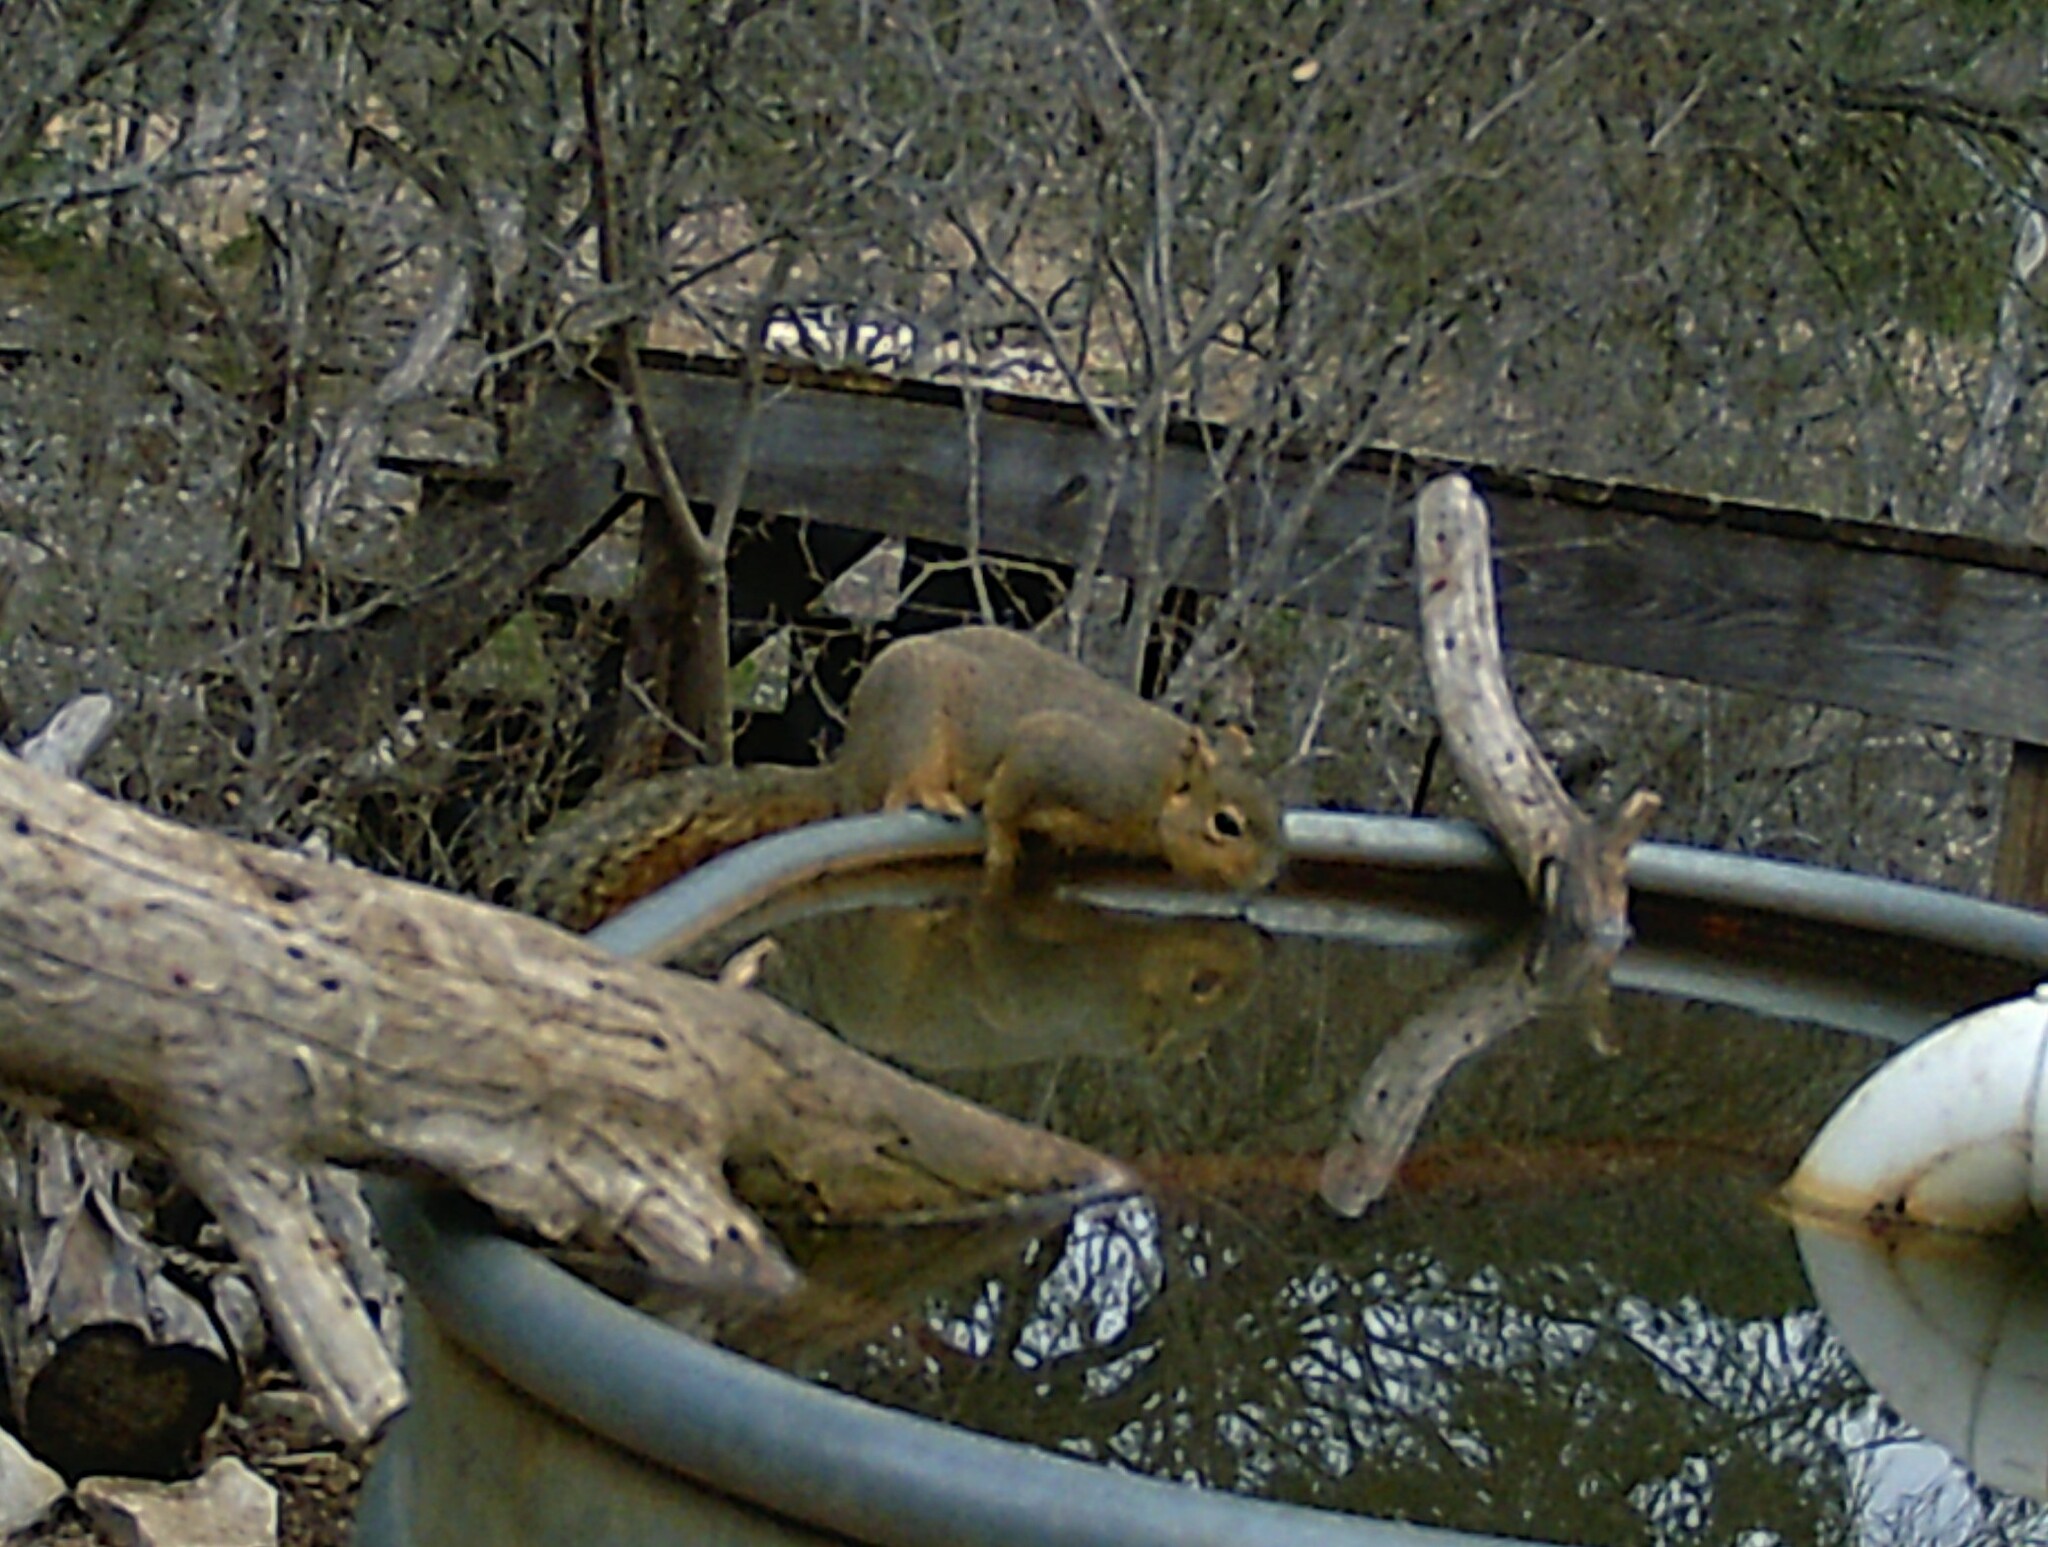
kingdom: Animalia
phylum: Chordata
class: Mammalia
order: Rodentia
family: Sciuridae
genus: Sciurus
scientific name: Sciurus niger
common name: Fox squirrel
